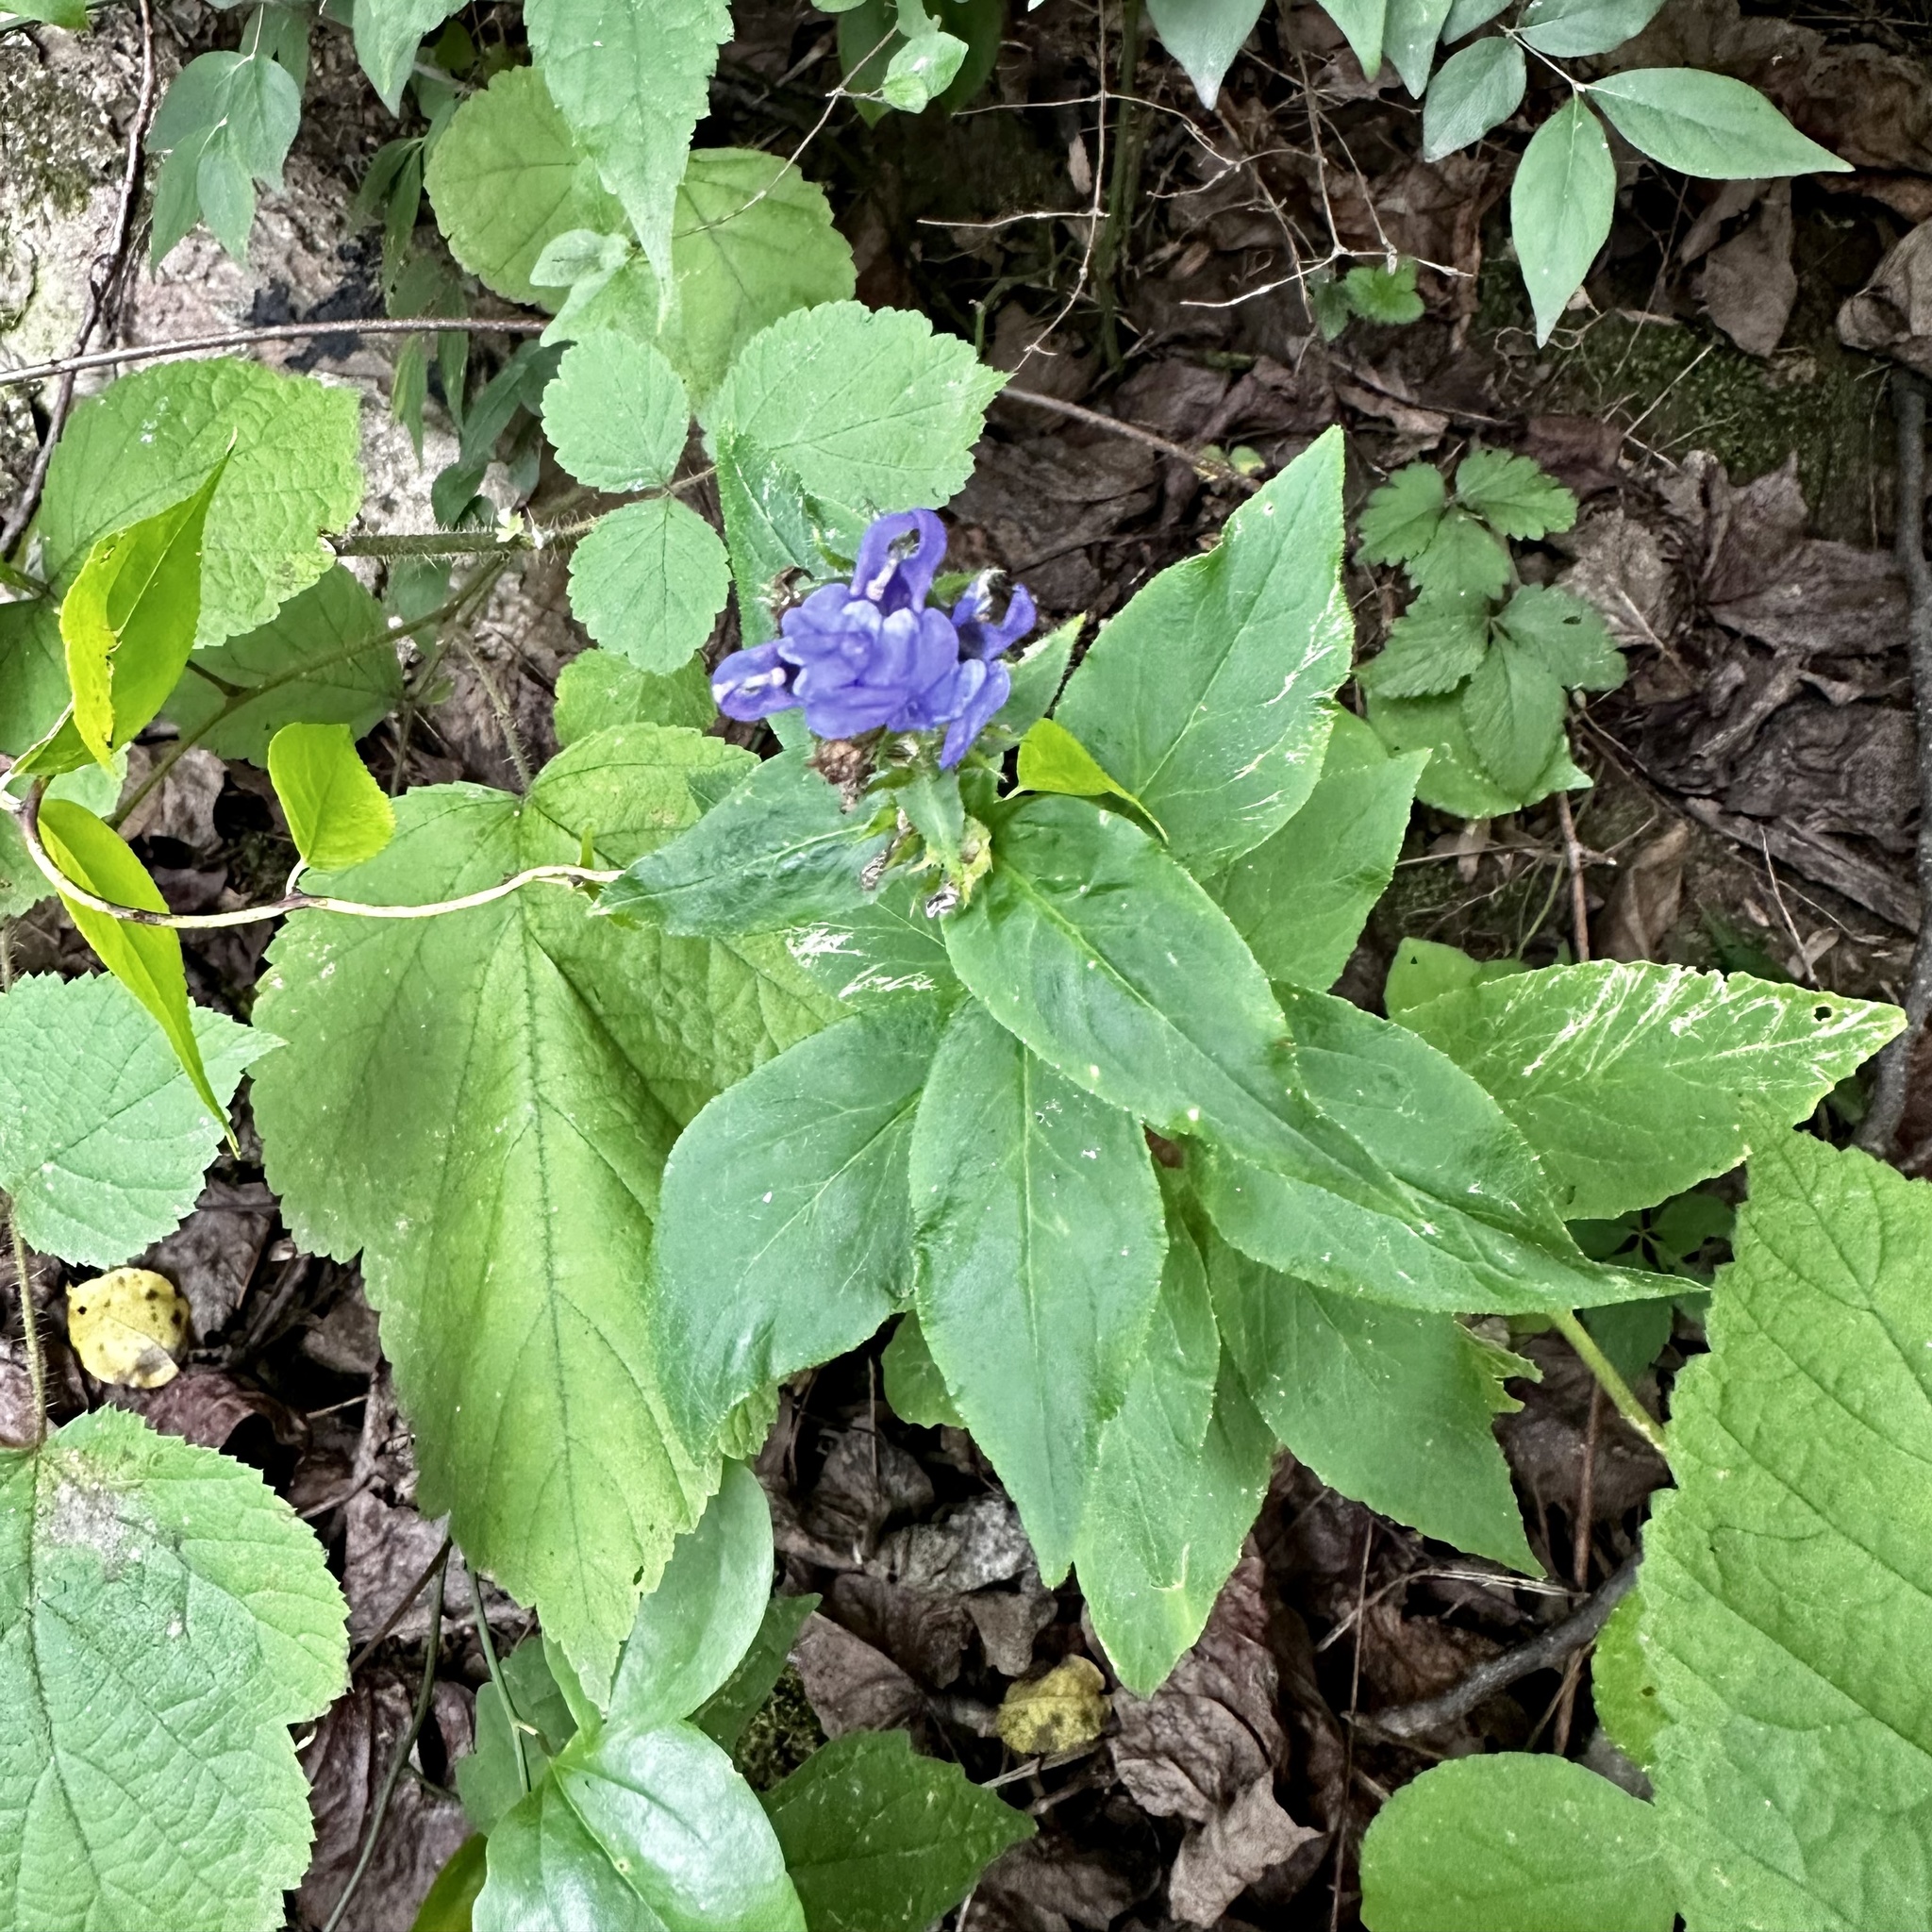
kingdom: Plantae
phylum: Tracheophyta
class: Magnoliopsida
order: Asterales
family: Campanulaceae
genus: Lobelia
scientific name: Lobelia siphilitica
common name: Great lobelia
